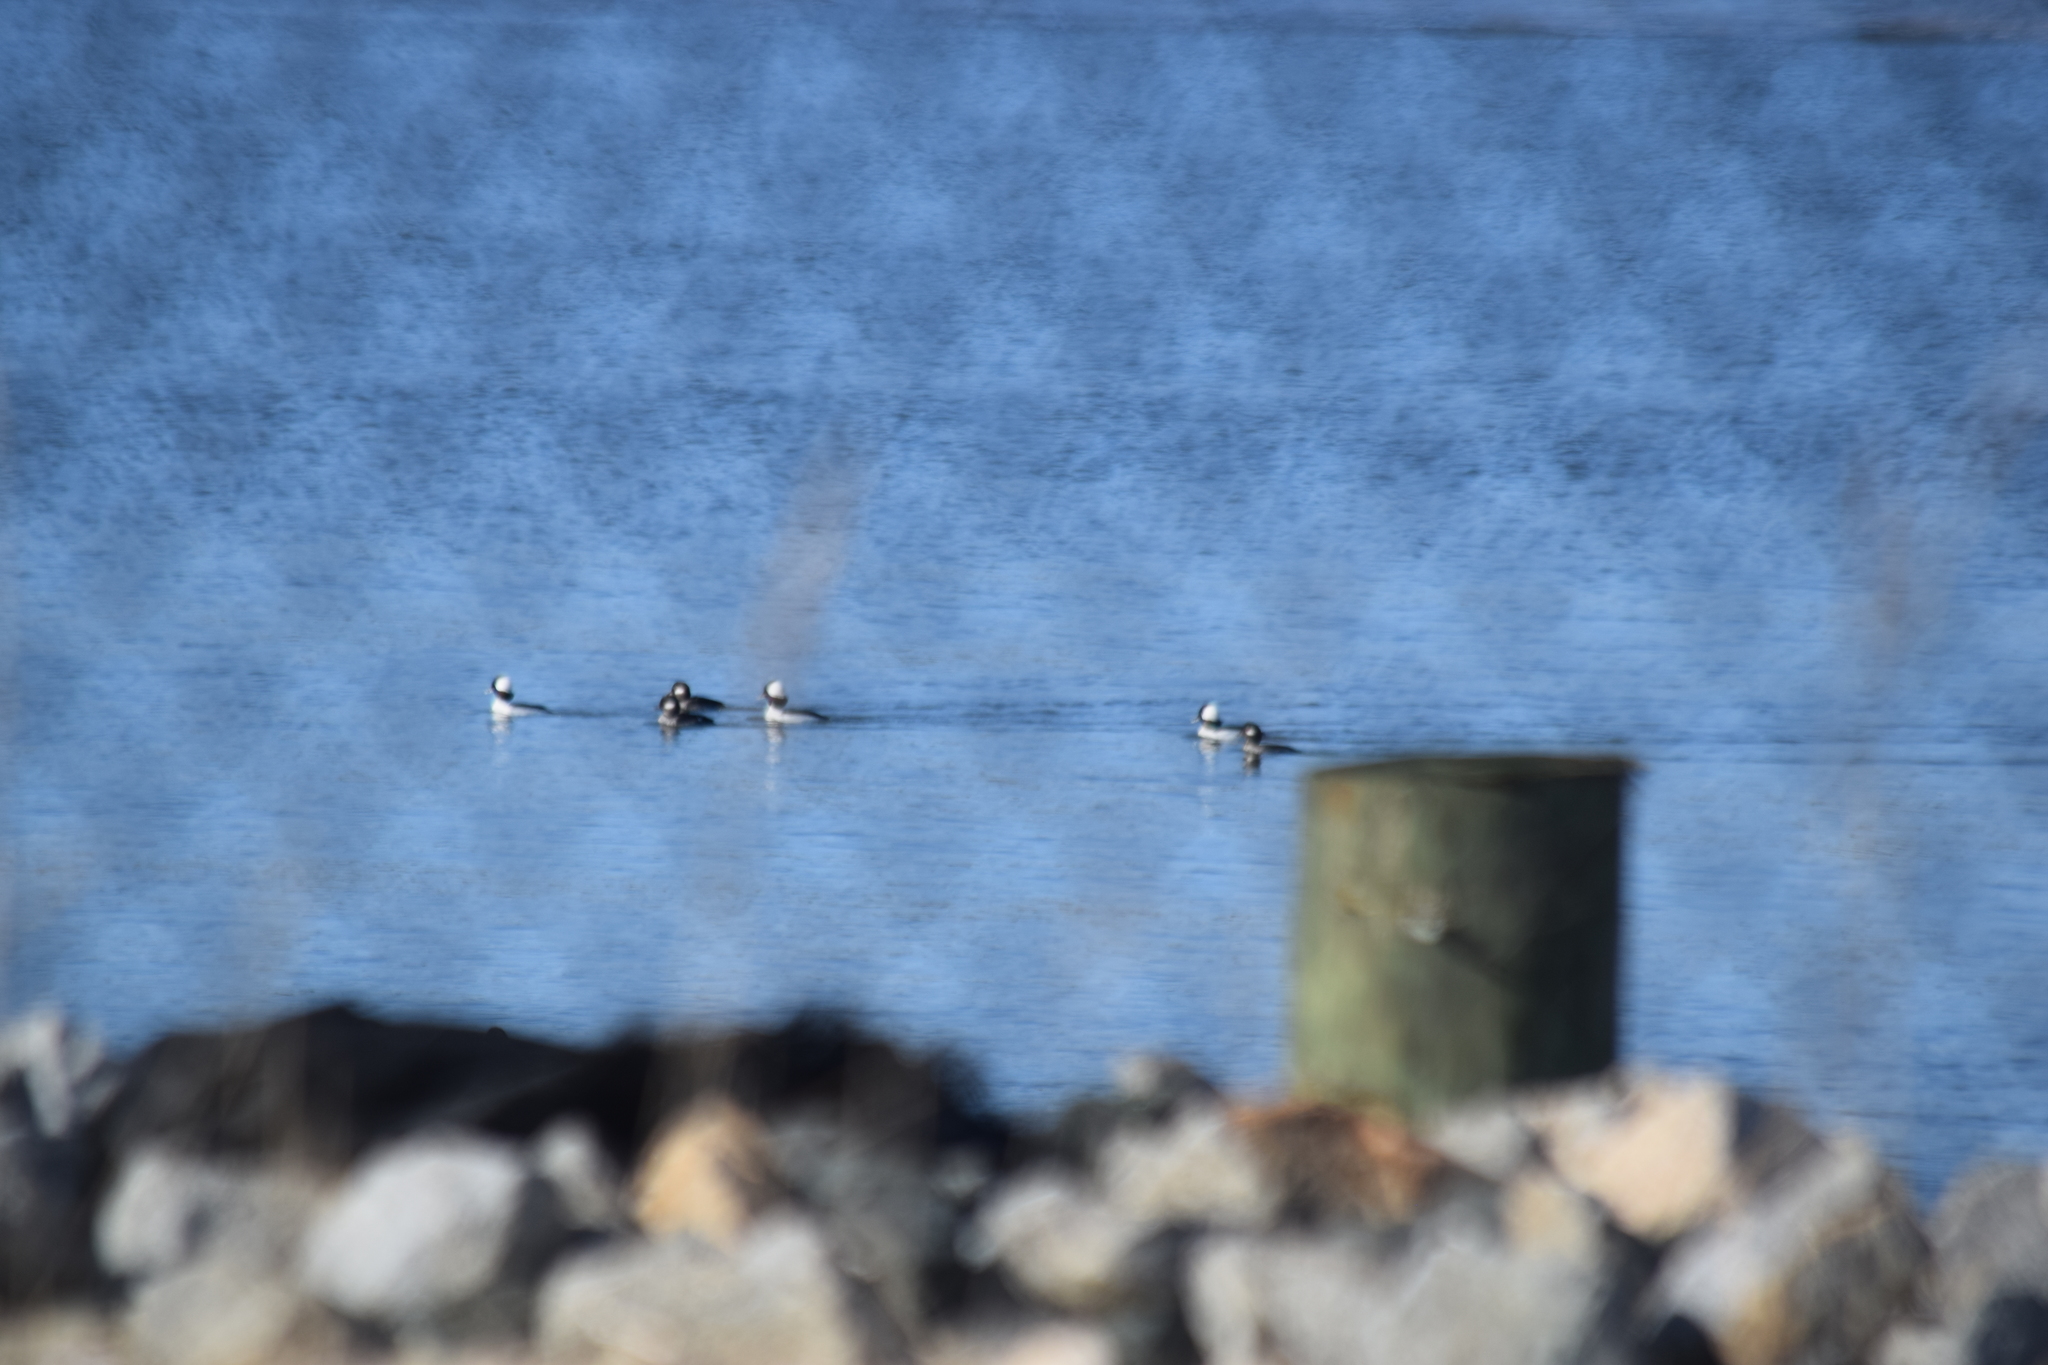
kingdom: Animalia
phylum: Chordata
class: Aves
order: Anseriformes
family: Anatidae
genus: Bucephala
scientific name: Bucephala albeola
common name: Bufflehead
